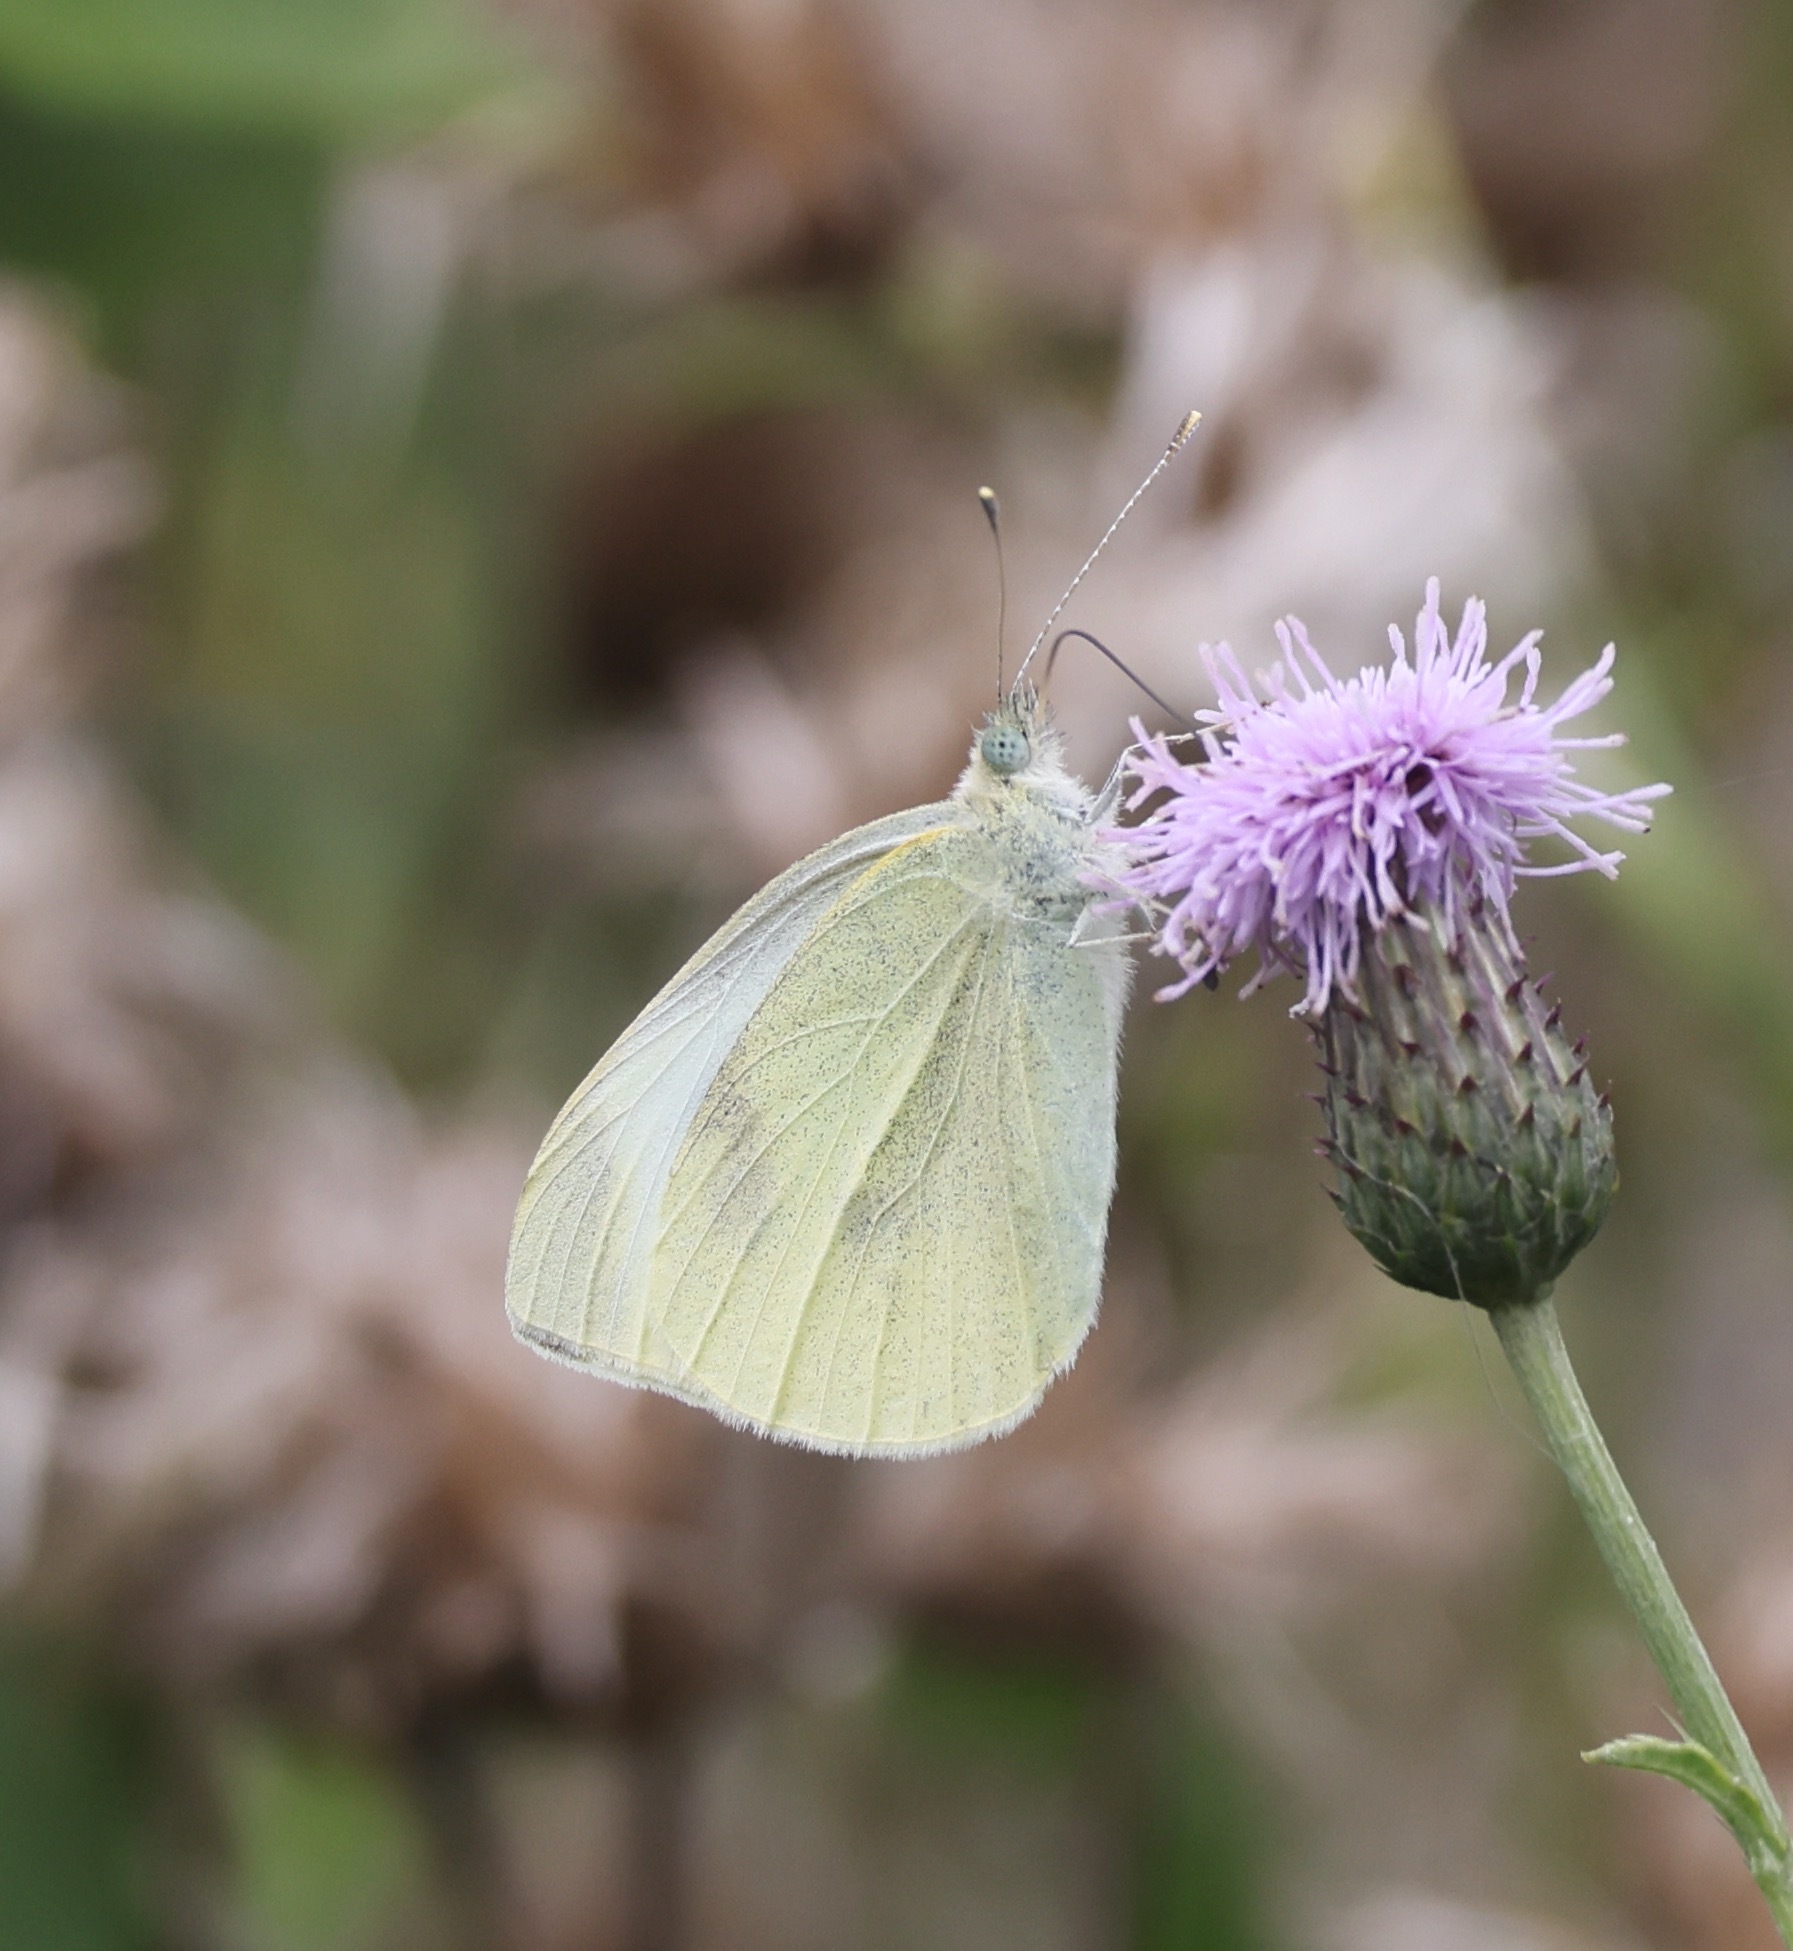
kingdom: Animalia
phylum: Arthropoda
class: Insecta
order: Lepidoptera
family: Pieridae
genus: Pieris
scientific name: Pieris rapae
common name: Small white
